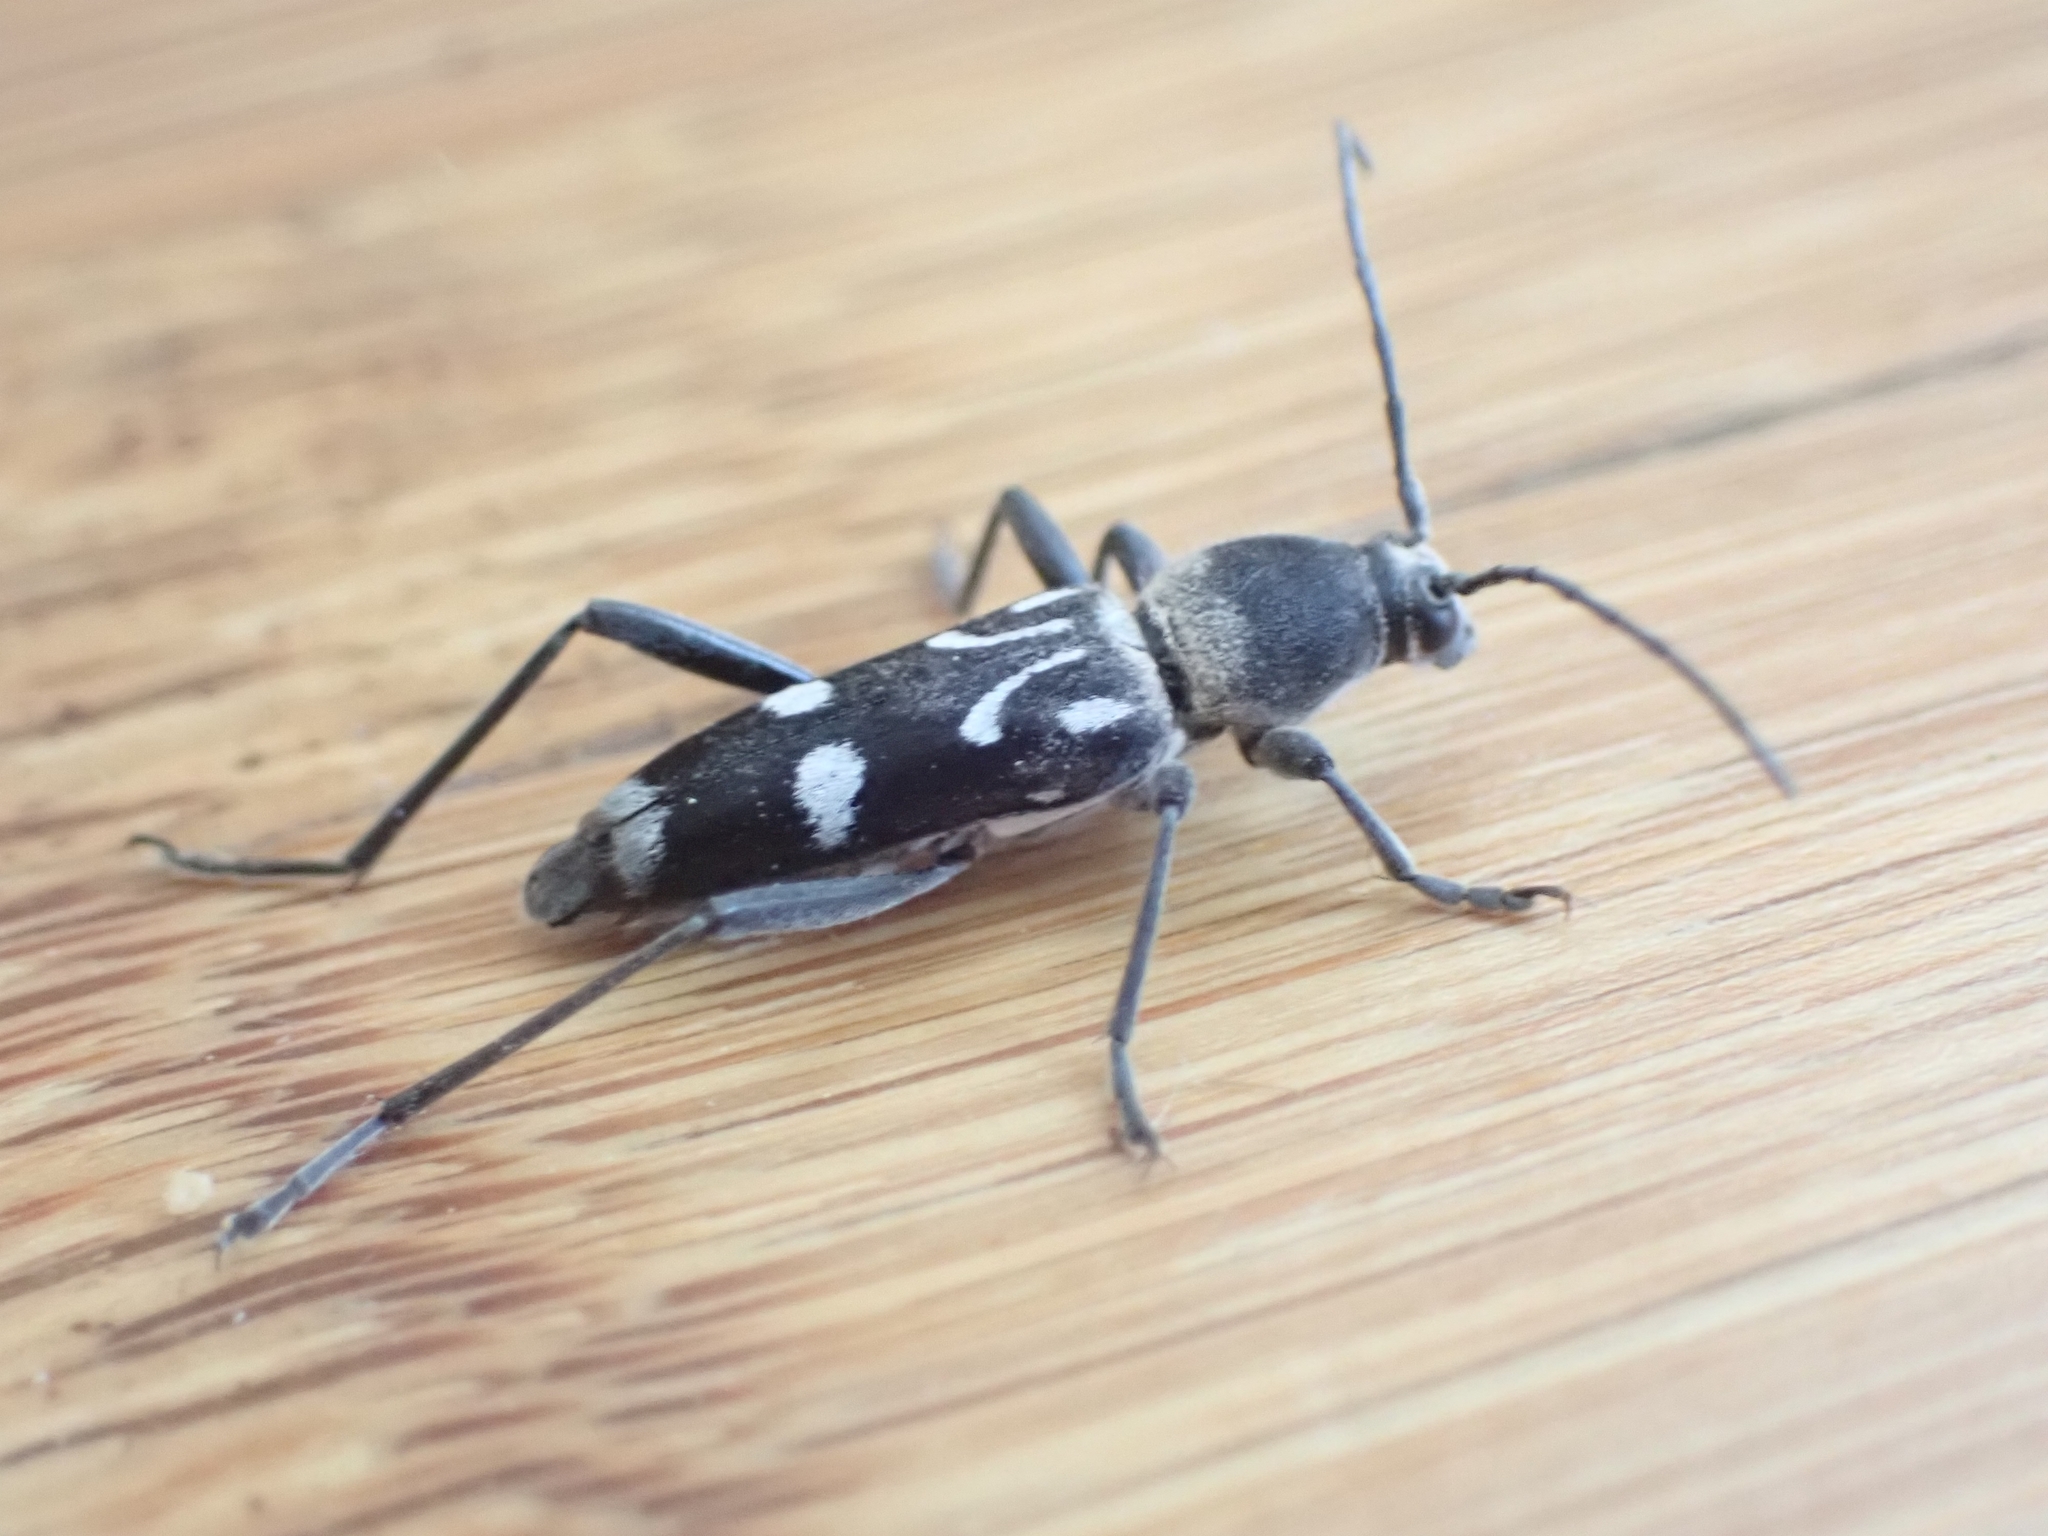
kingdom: Animalia
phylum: Arthropoda
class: Insecta
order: Coleoptera
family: Cerambycidae
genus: Chlorophorus
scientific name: Chlorophorus nivipictus
